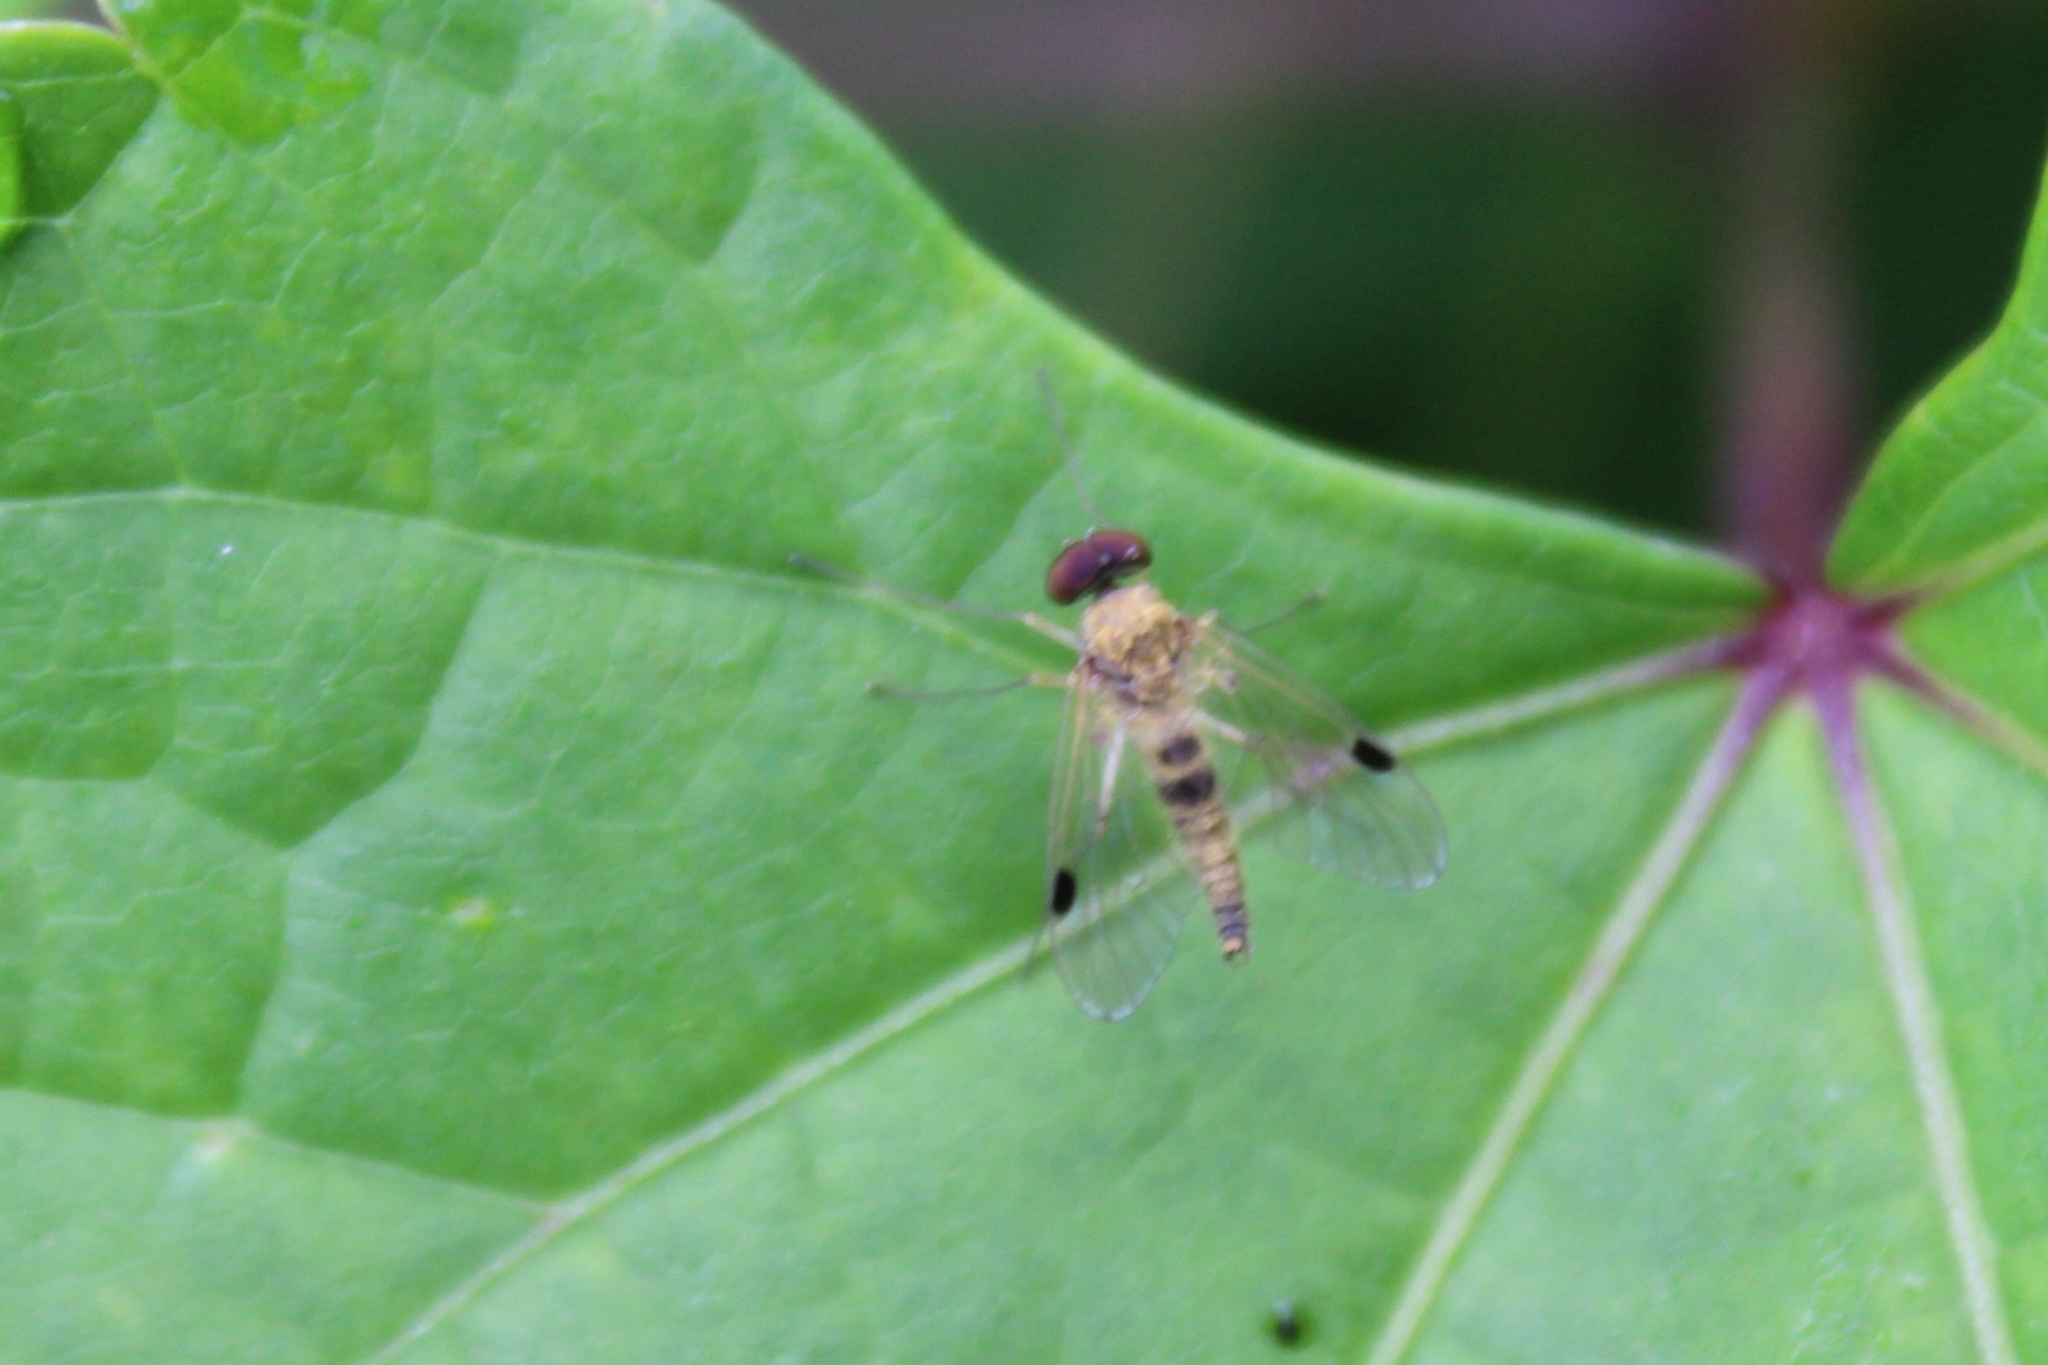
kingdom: Animalia
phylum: Arthropoda
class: Insecta
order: Diptera
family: Rhagionidae
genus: Chrysopilus
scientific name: Chrysopilus modestus
